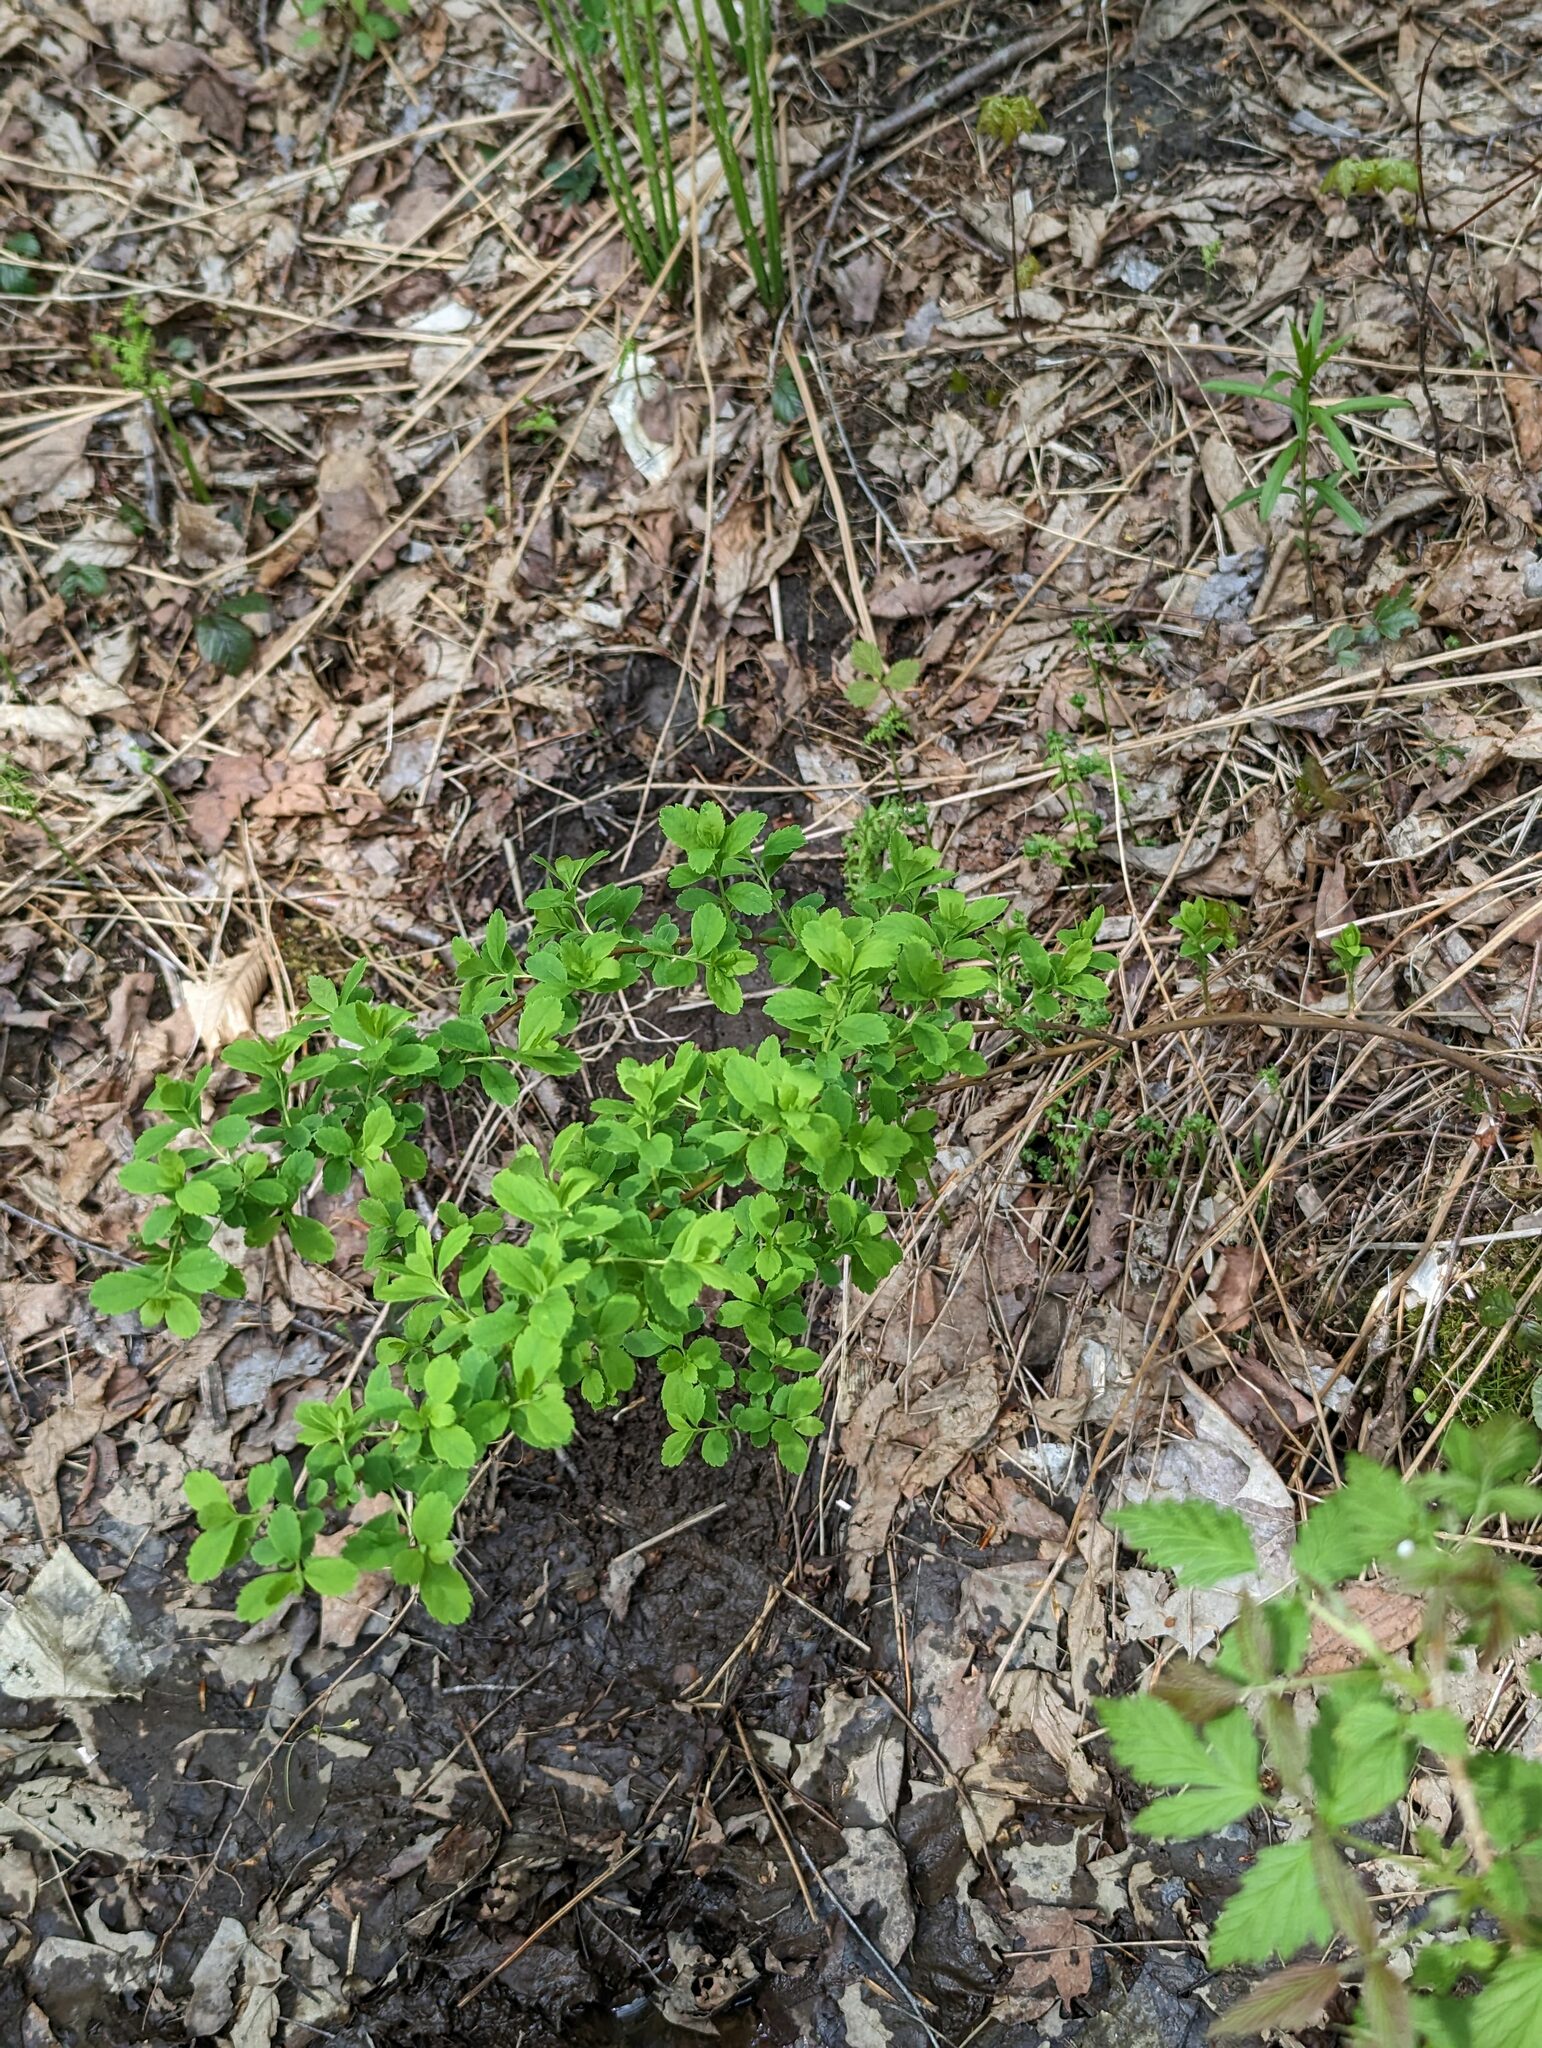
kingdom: Plantae
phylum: Tracheophyta
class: Magnoliopsida
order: Rosales
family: Rosaceae
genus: Spiraea
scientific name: Spiraea alba
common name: Pale bridewort
